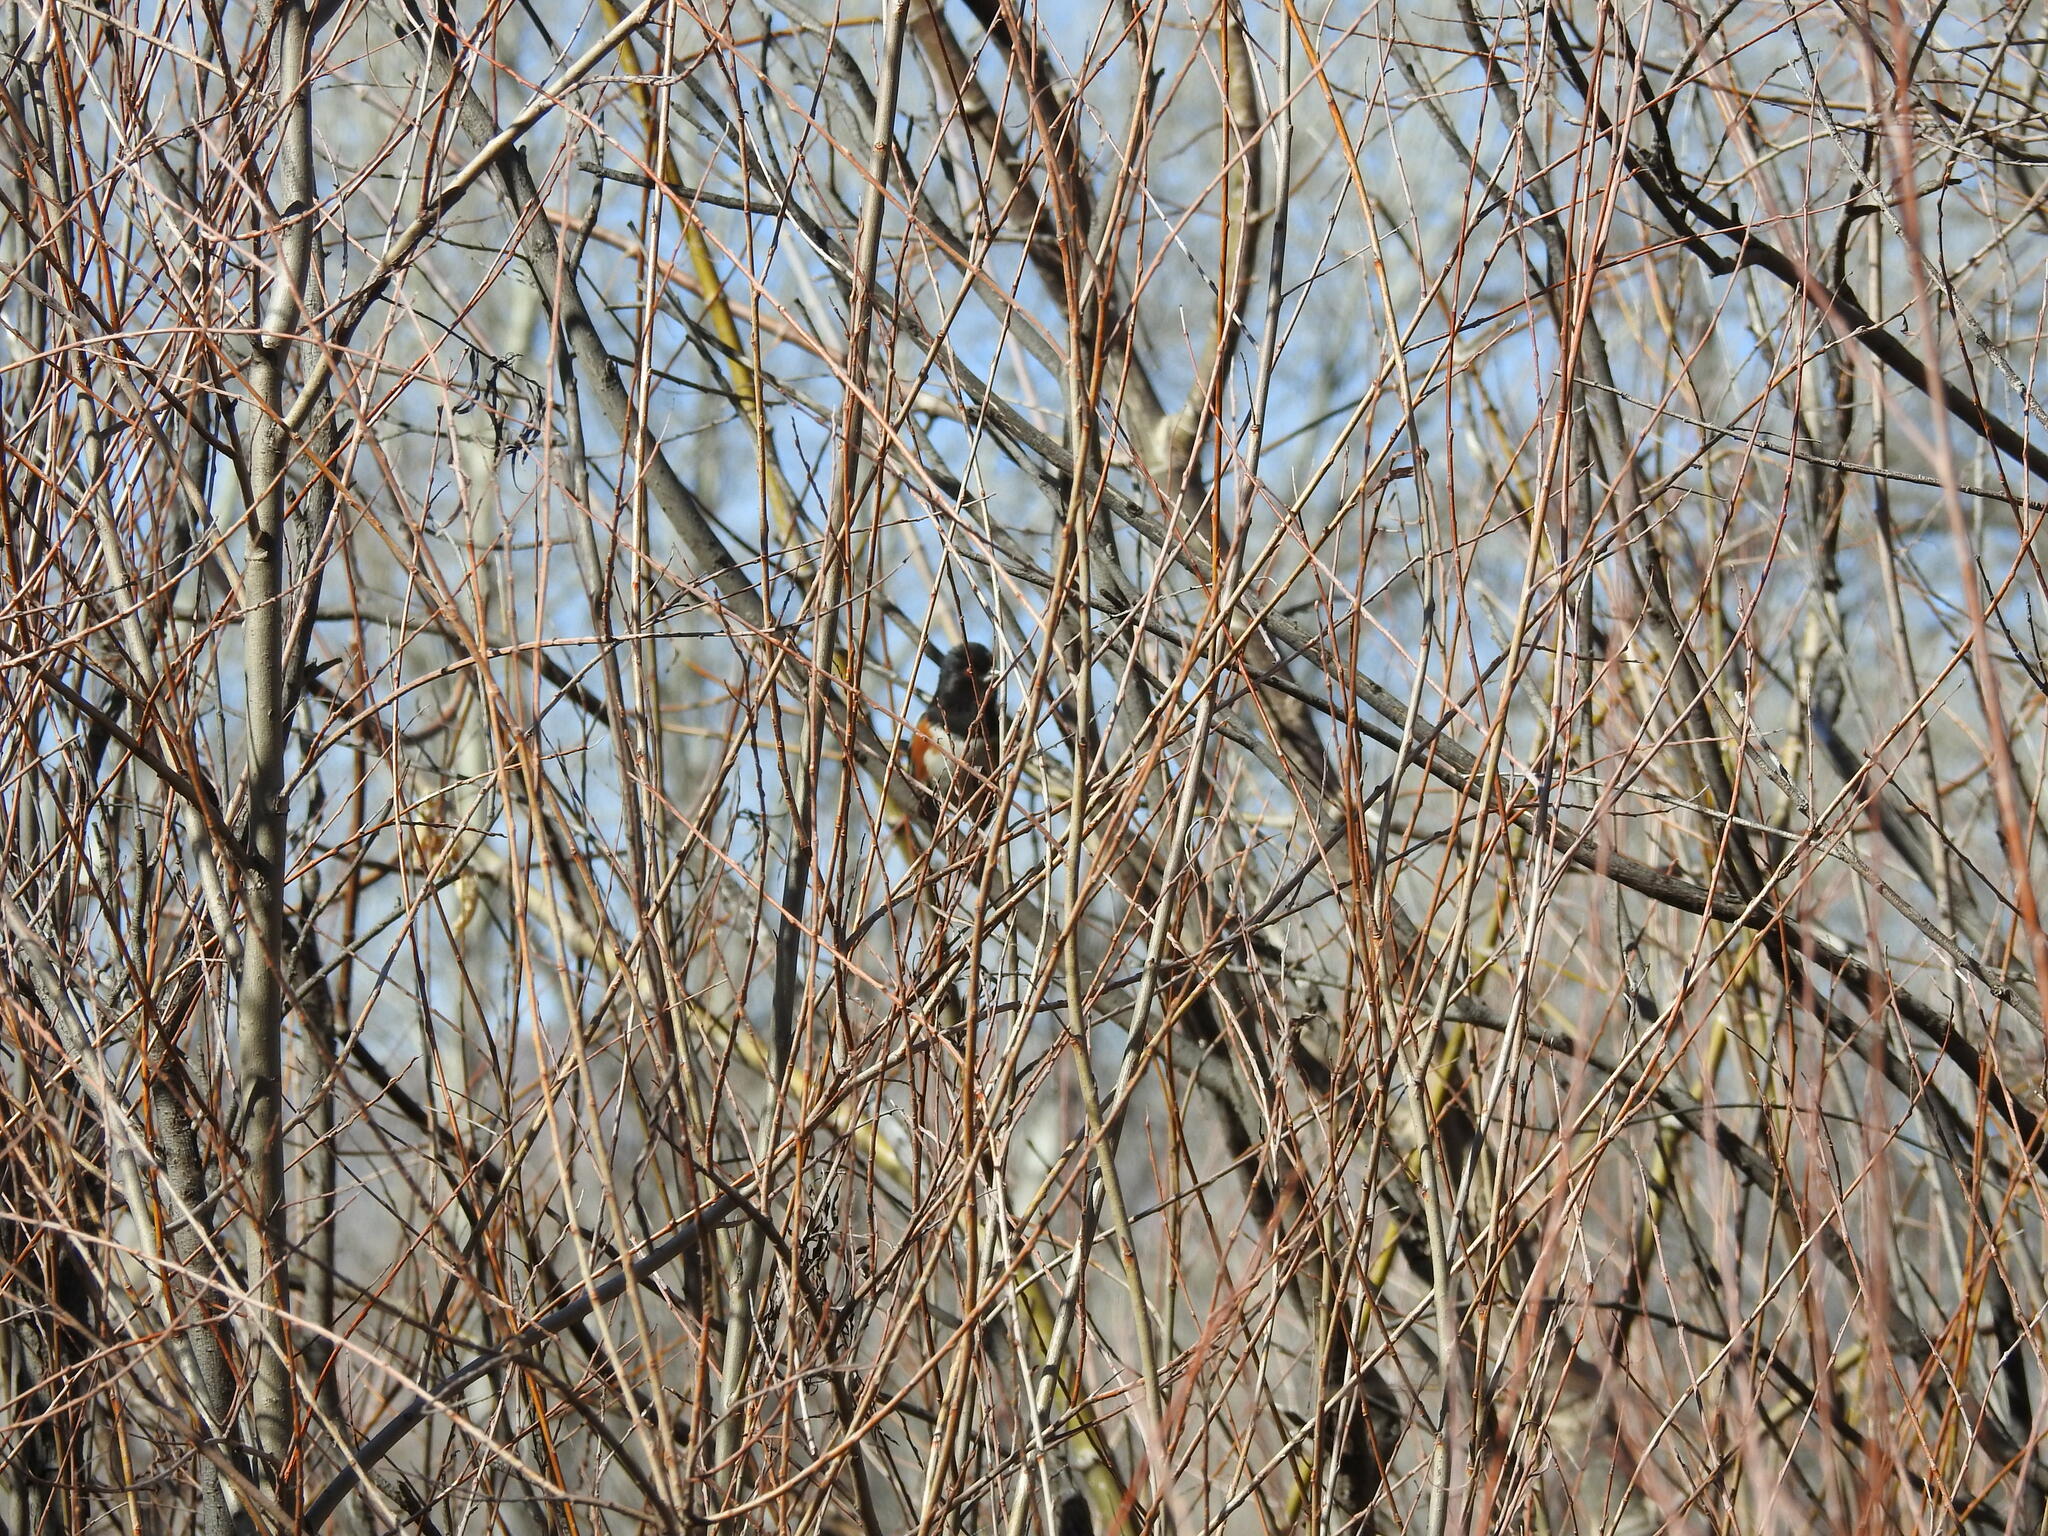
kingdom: Animalia
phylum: Chordata
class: Aves
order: Passeriformes
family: Passerellidae
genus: Pipilo
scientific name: Pipilo maculatus
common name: Spotted towhee
